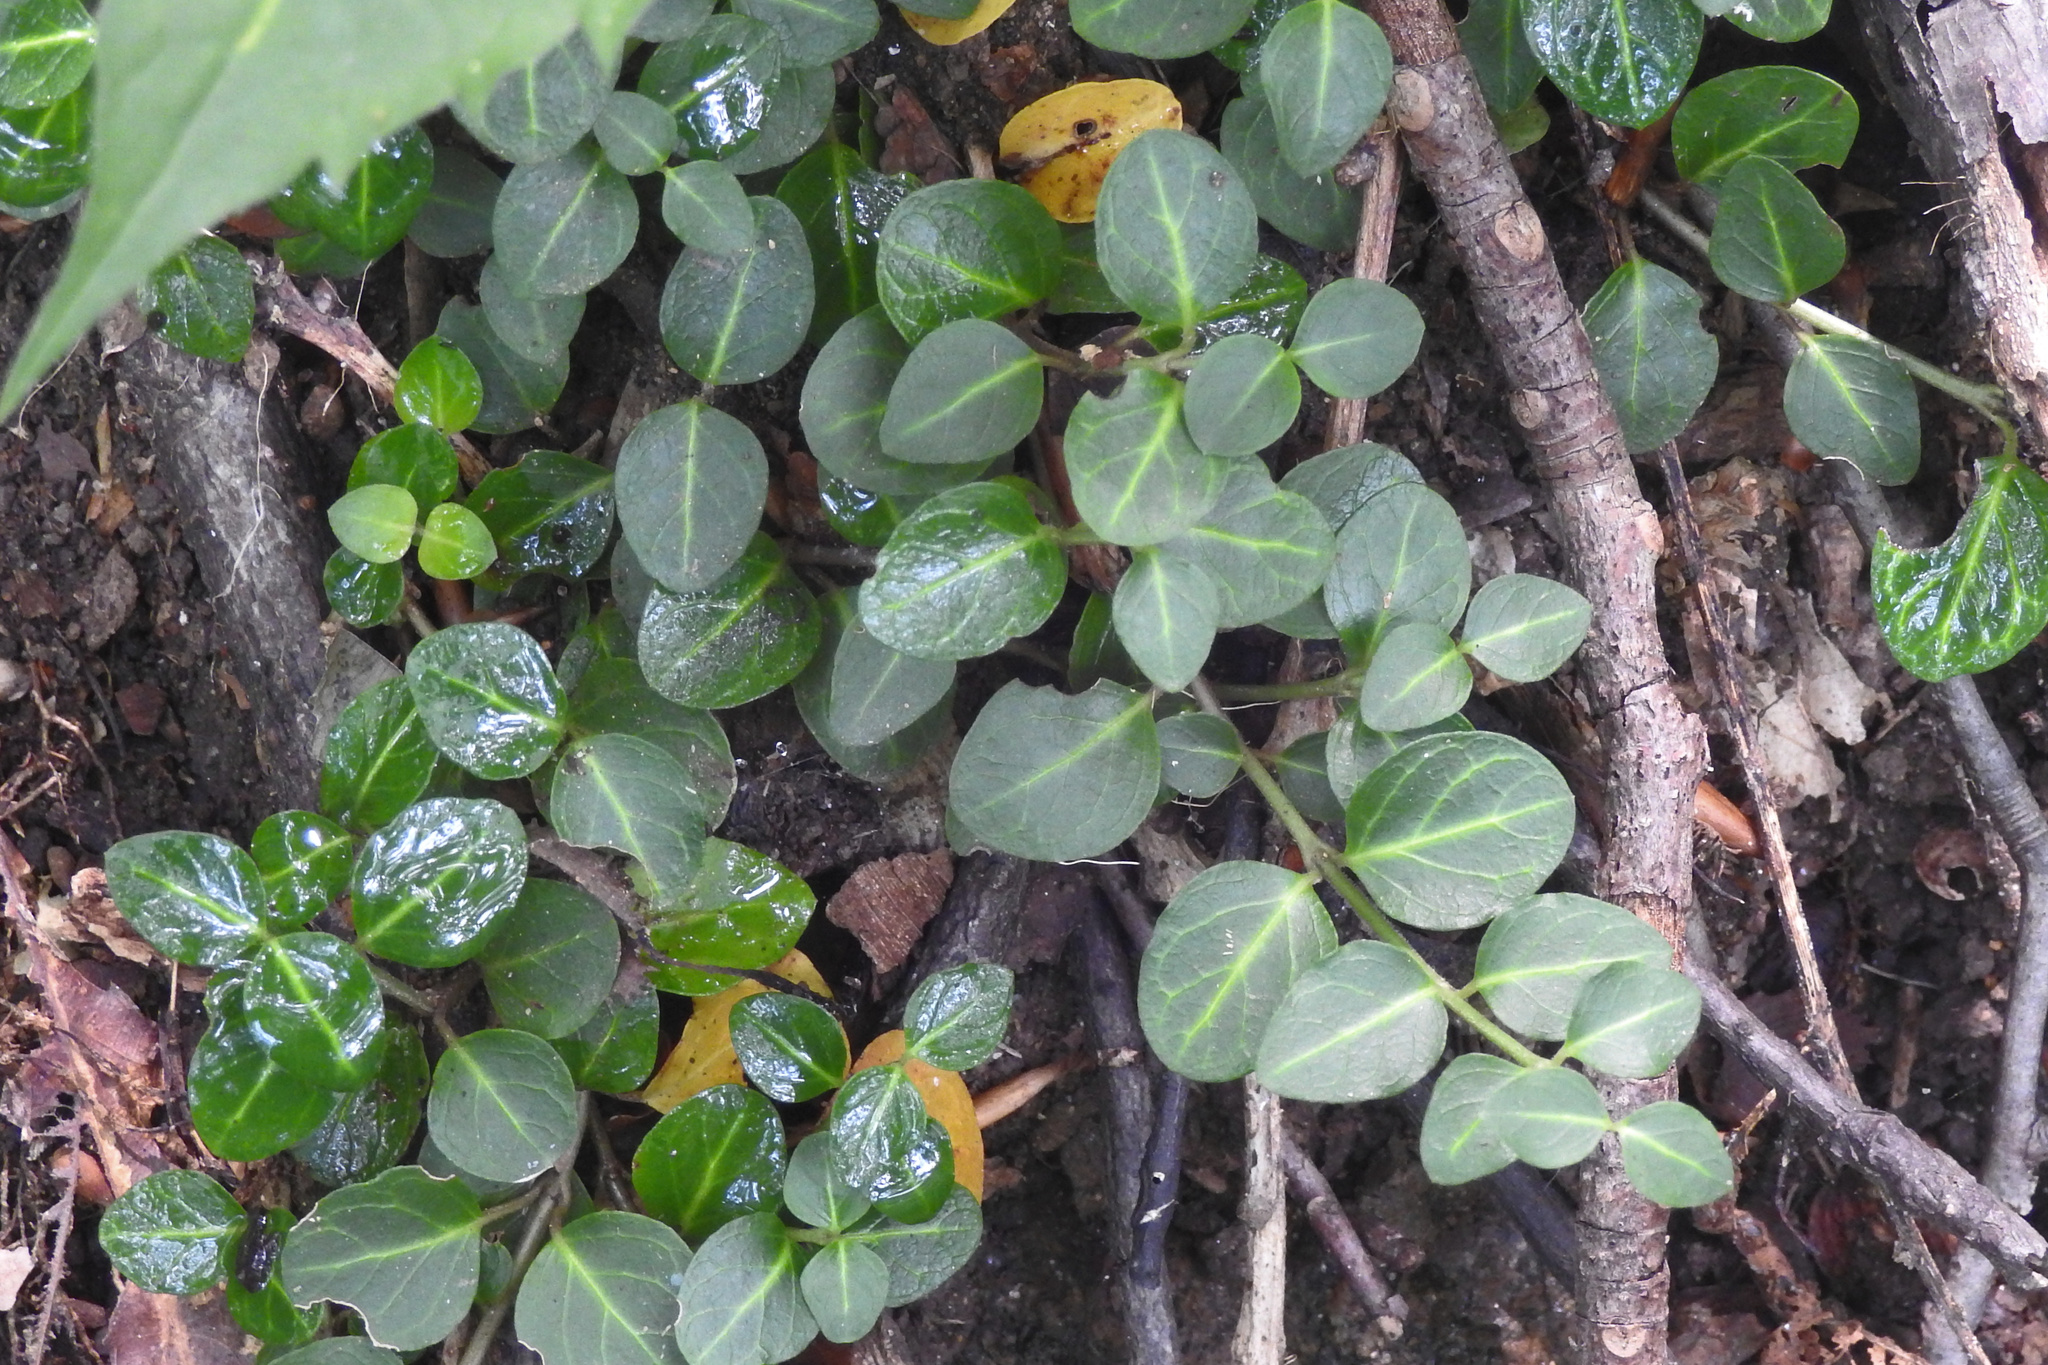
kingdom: Plantae
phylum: Tracheophyta
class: Magnoliopsida
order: Gentianales
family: Rubiaceae
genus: Mitchella
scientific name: Mitchella repens
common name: Partridge-berry
